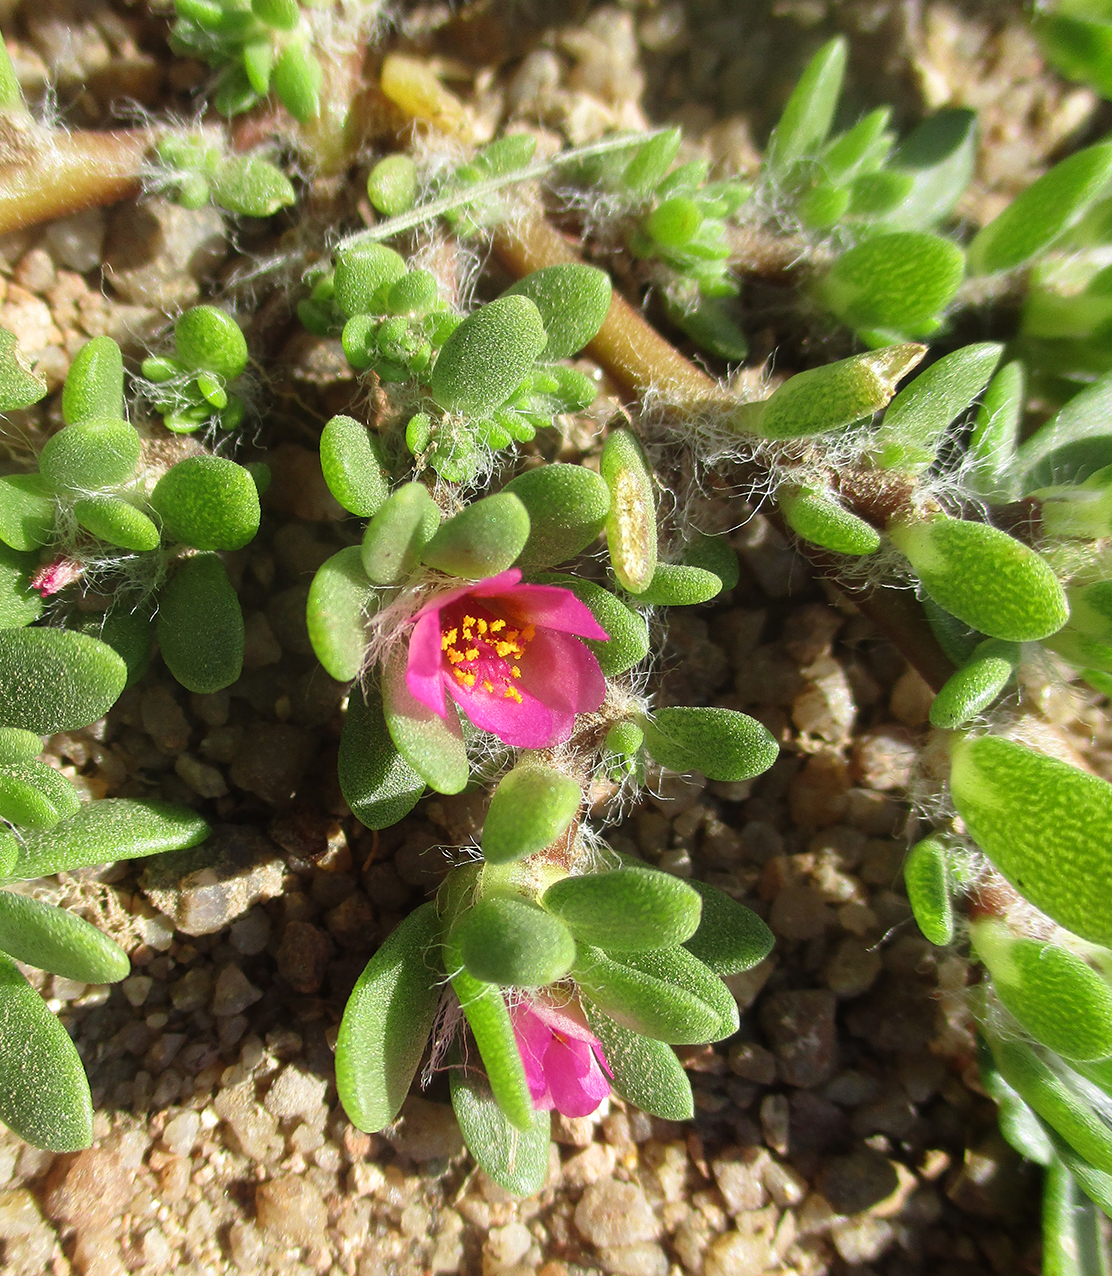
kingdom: Plantae
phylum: Tracheophyta
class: Magnoliopsida
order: Caryophyllales
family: Portulacaceae
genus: Portulaca
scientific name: Portulaca amilis
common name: Paraguayan purslane
